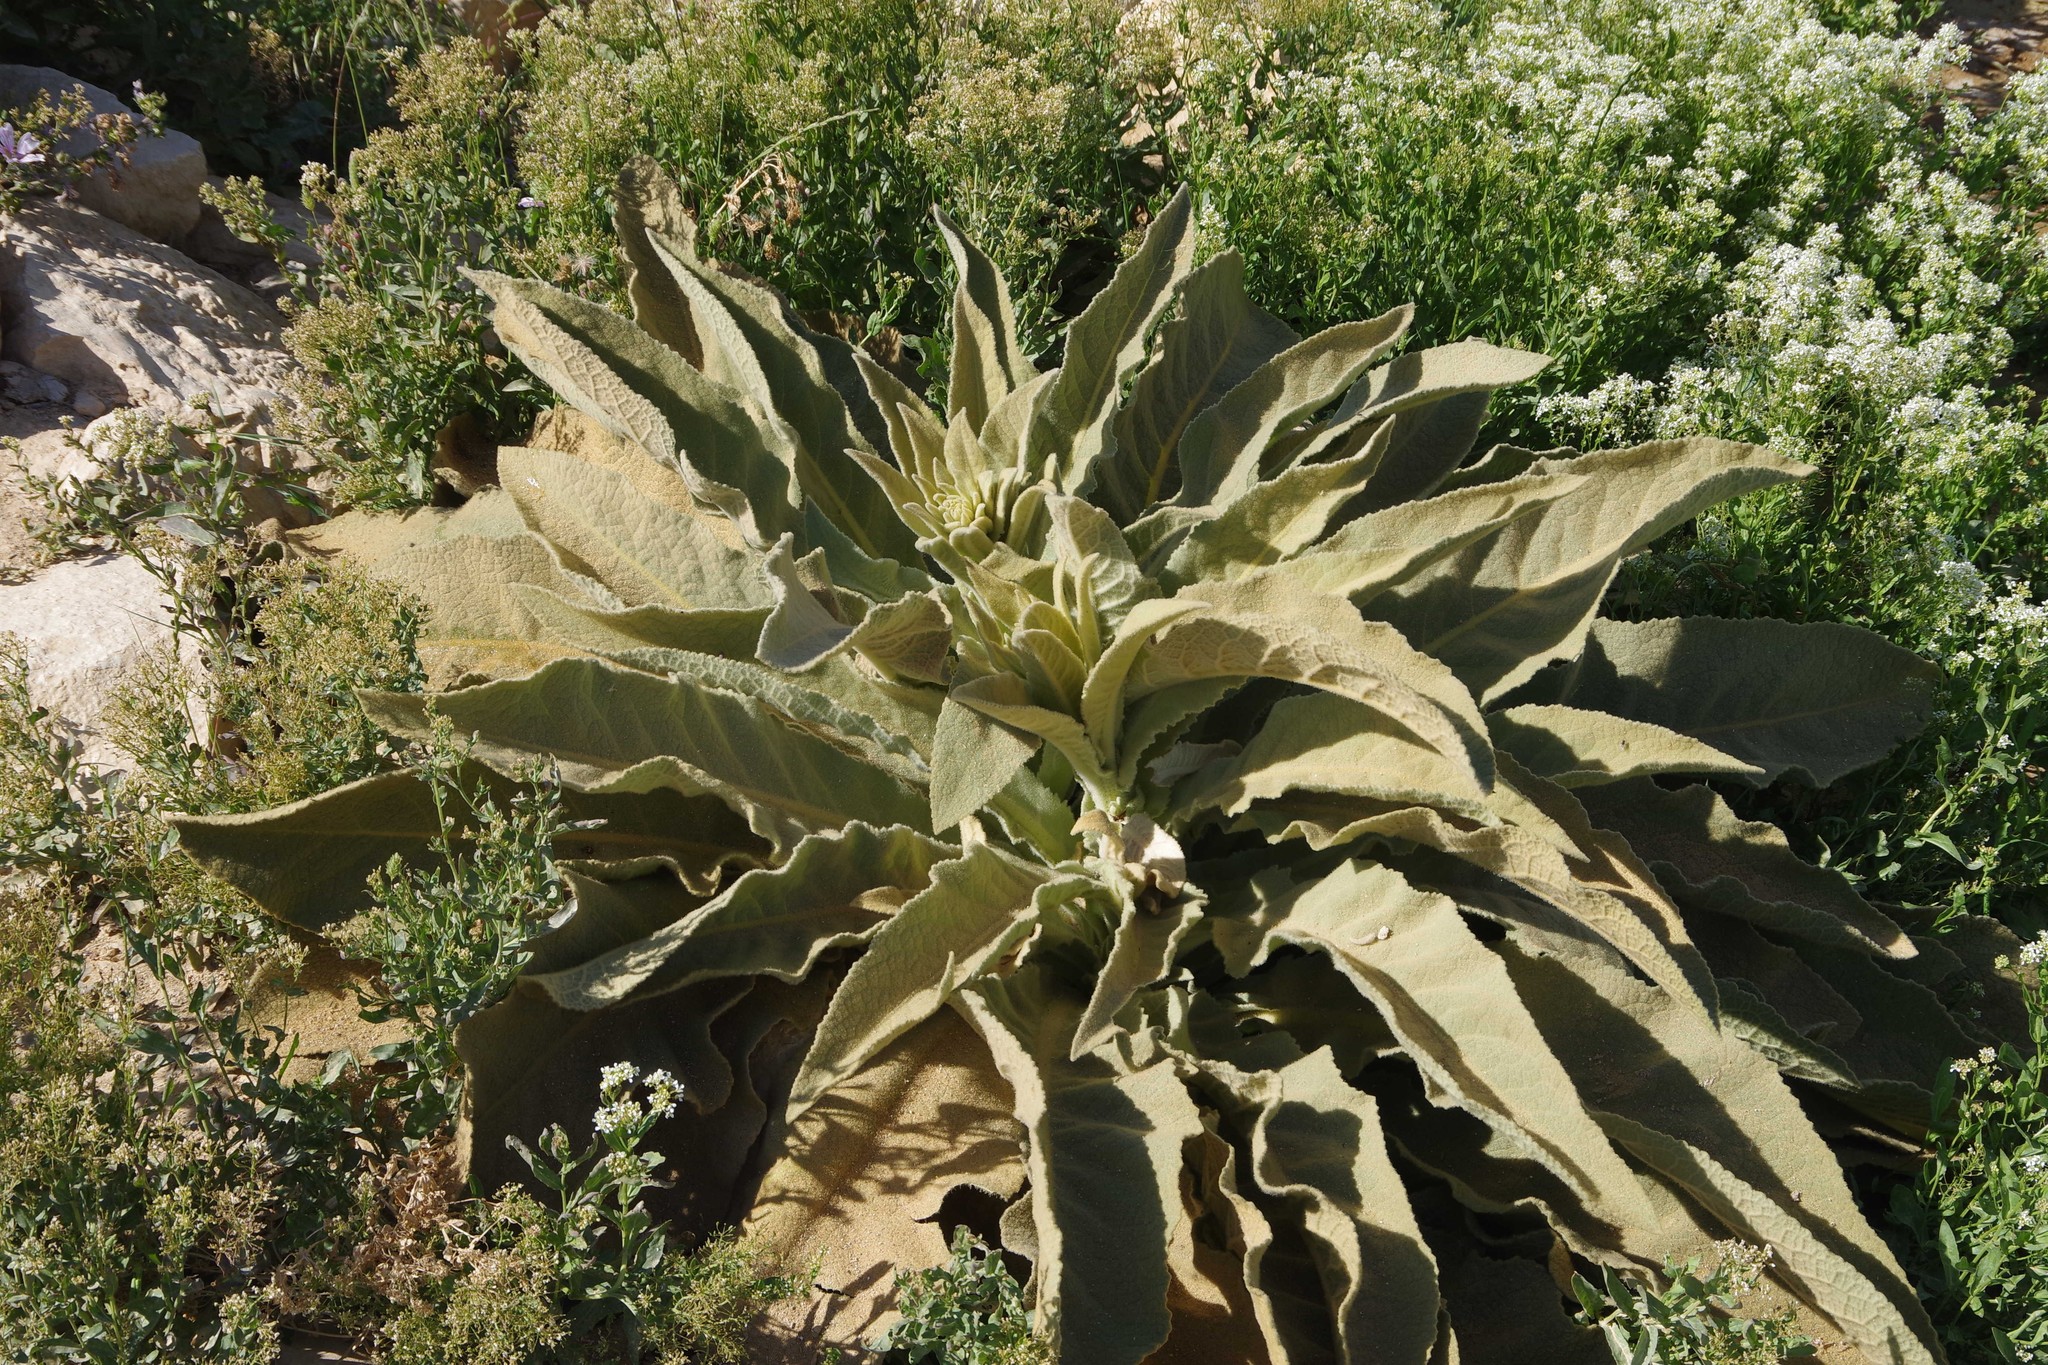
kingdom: Plantae
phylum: Tracheophyta
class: Magnoliopsida
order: Lamiales
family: Scrophulariaceae
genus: Verbascum
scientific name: Verbascum sinaiticum
